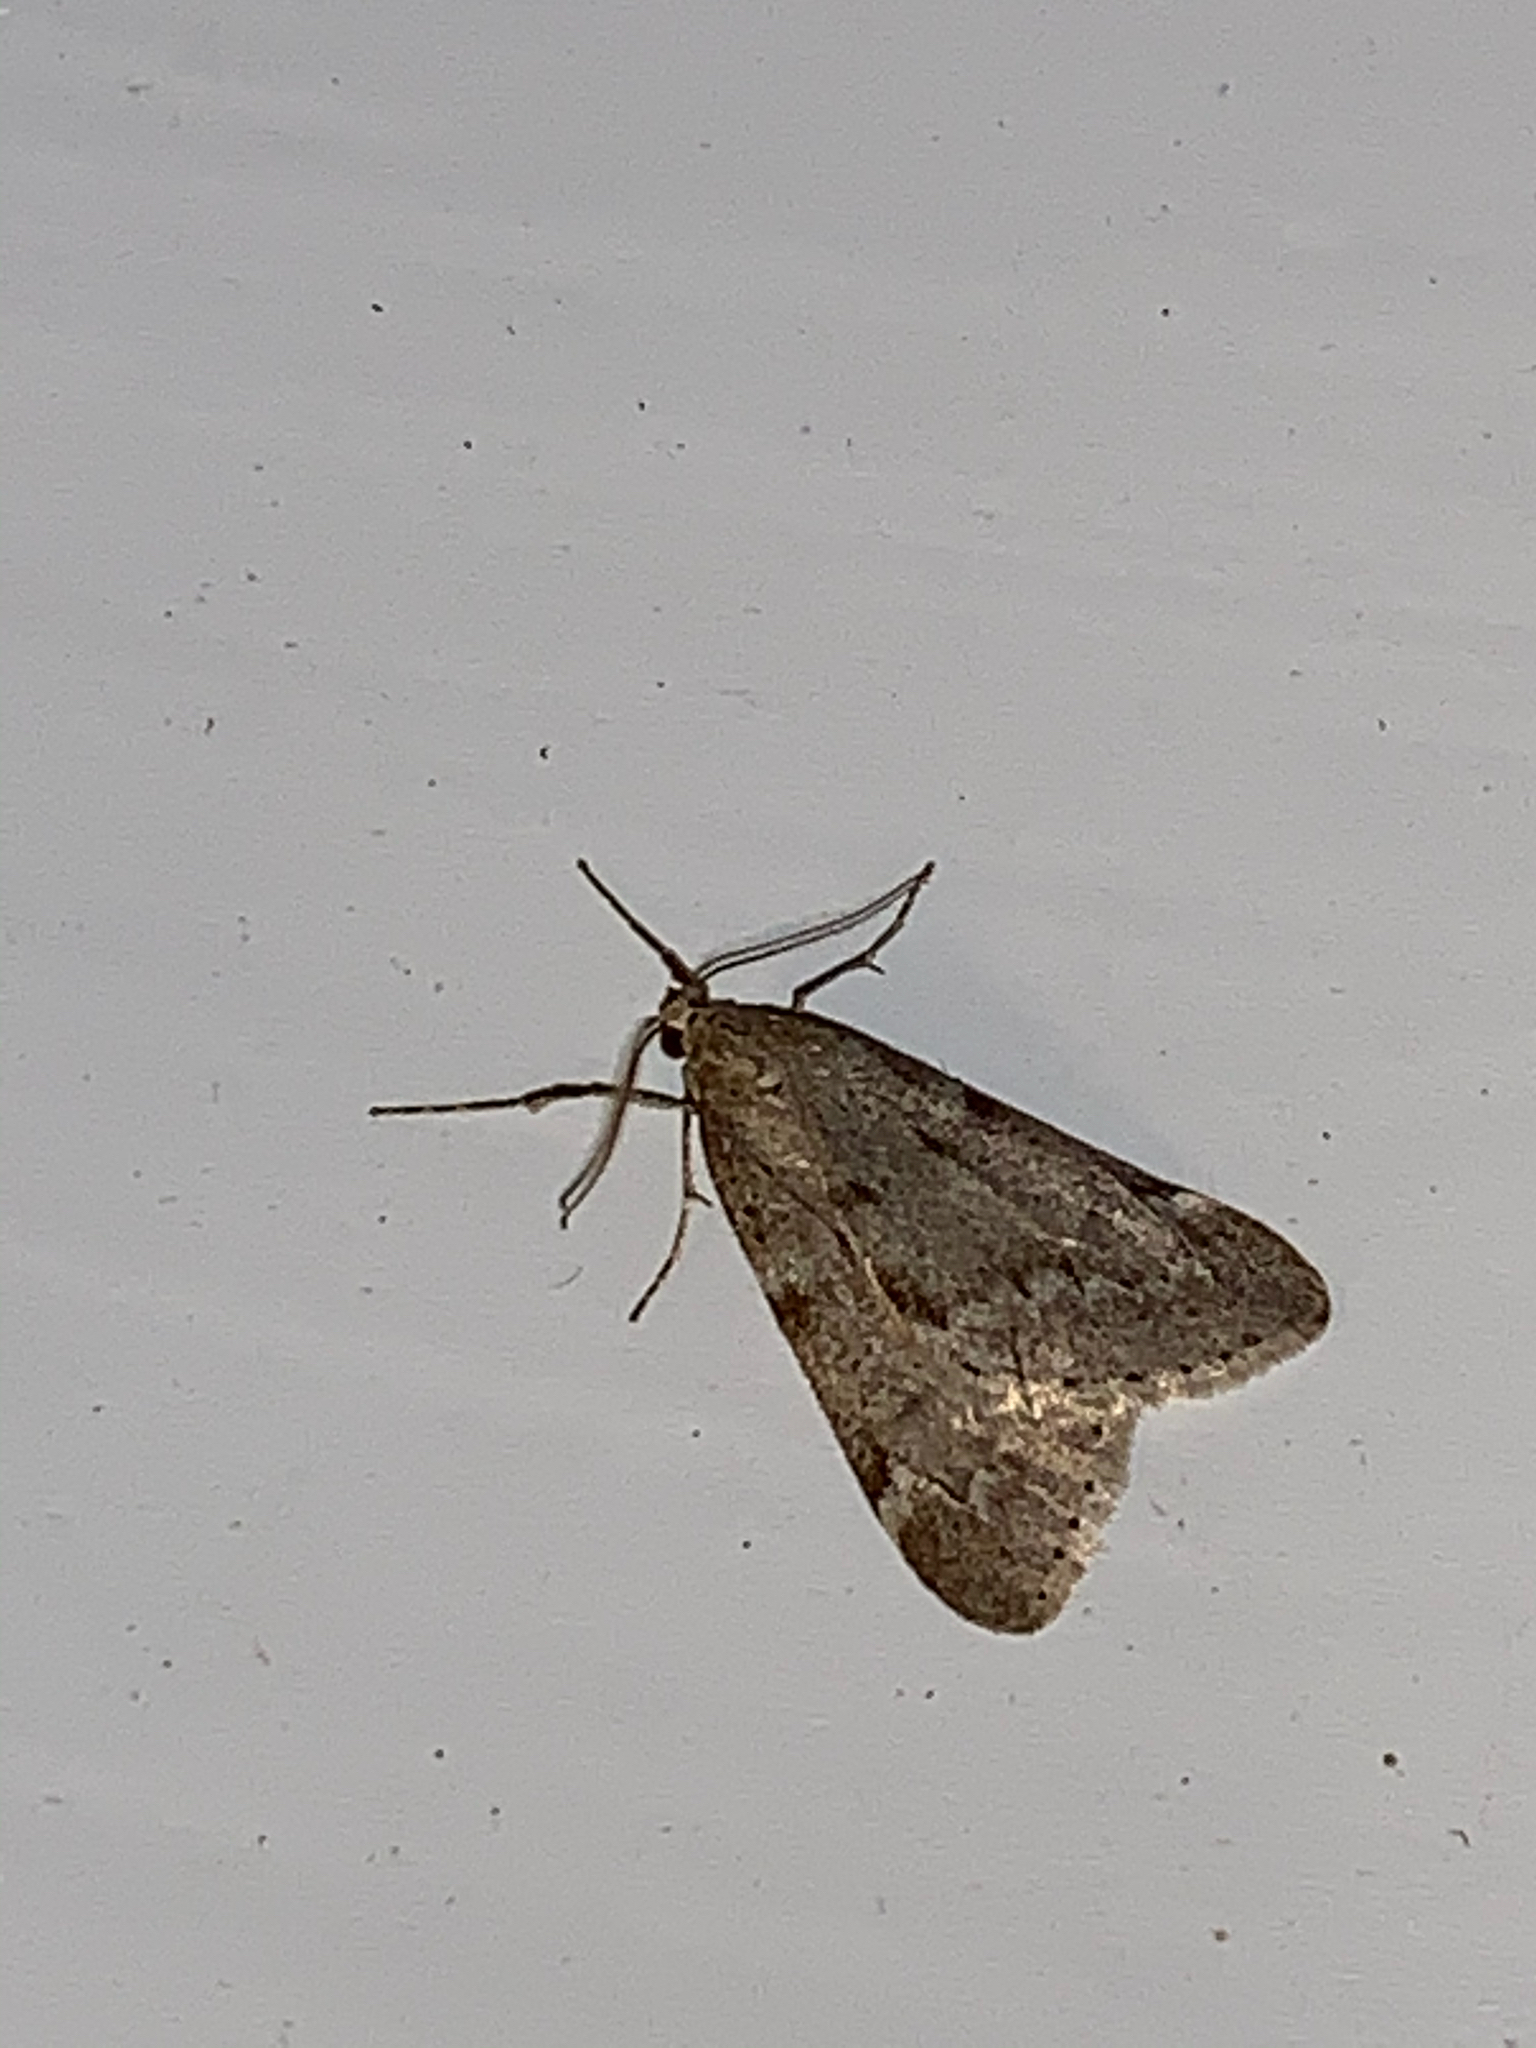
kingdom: Animalia
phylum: Arthropoda
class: Insecta
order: Lepidoptera
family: Geometridae
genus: Alsophila
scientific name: Alsophila pometaria
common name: Fall cankerworm
